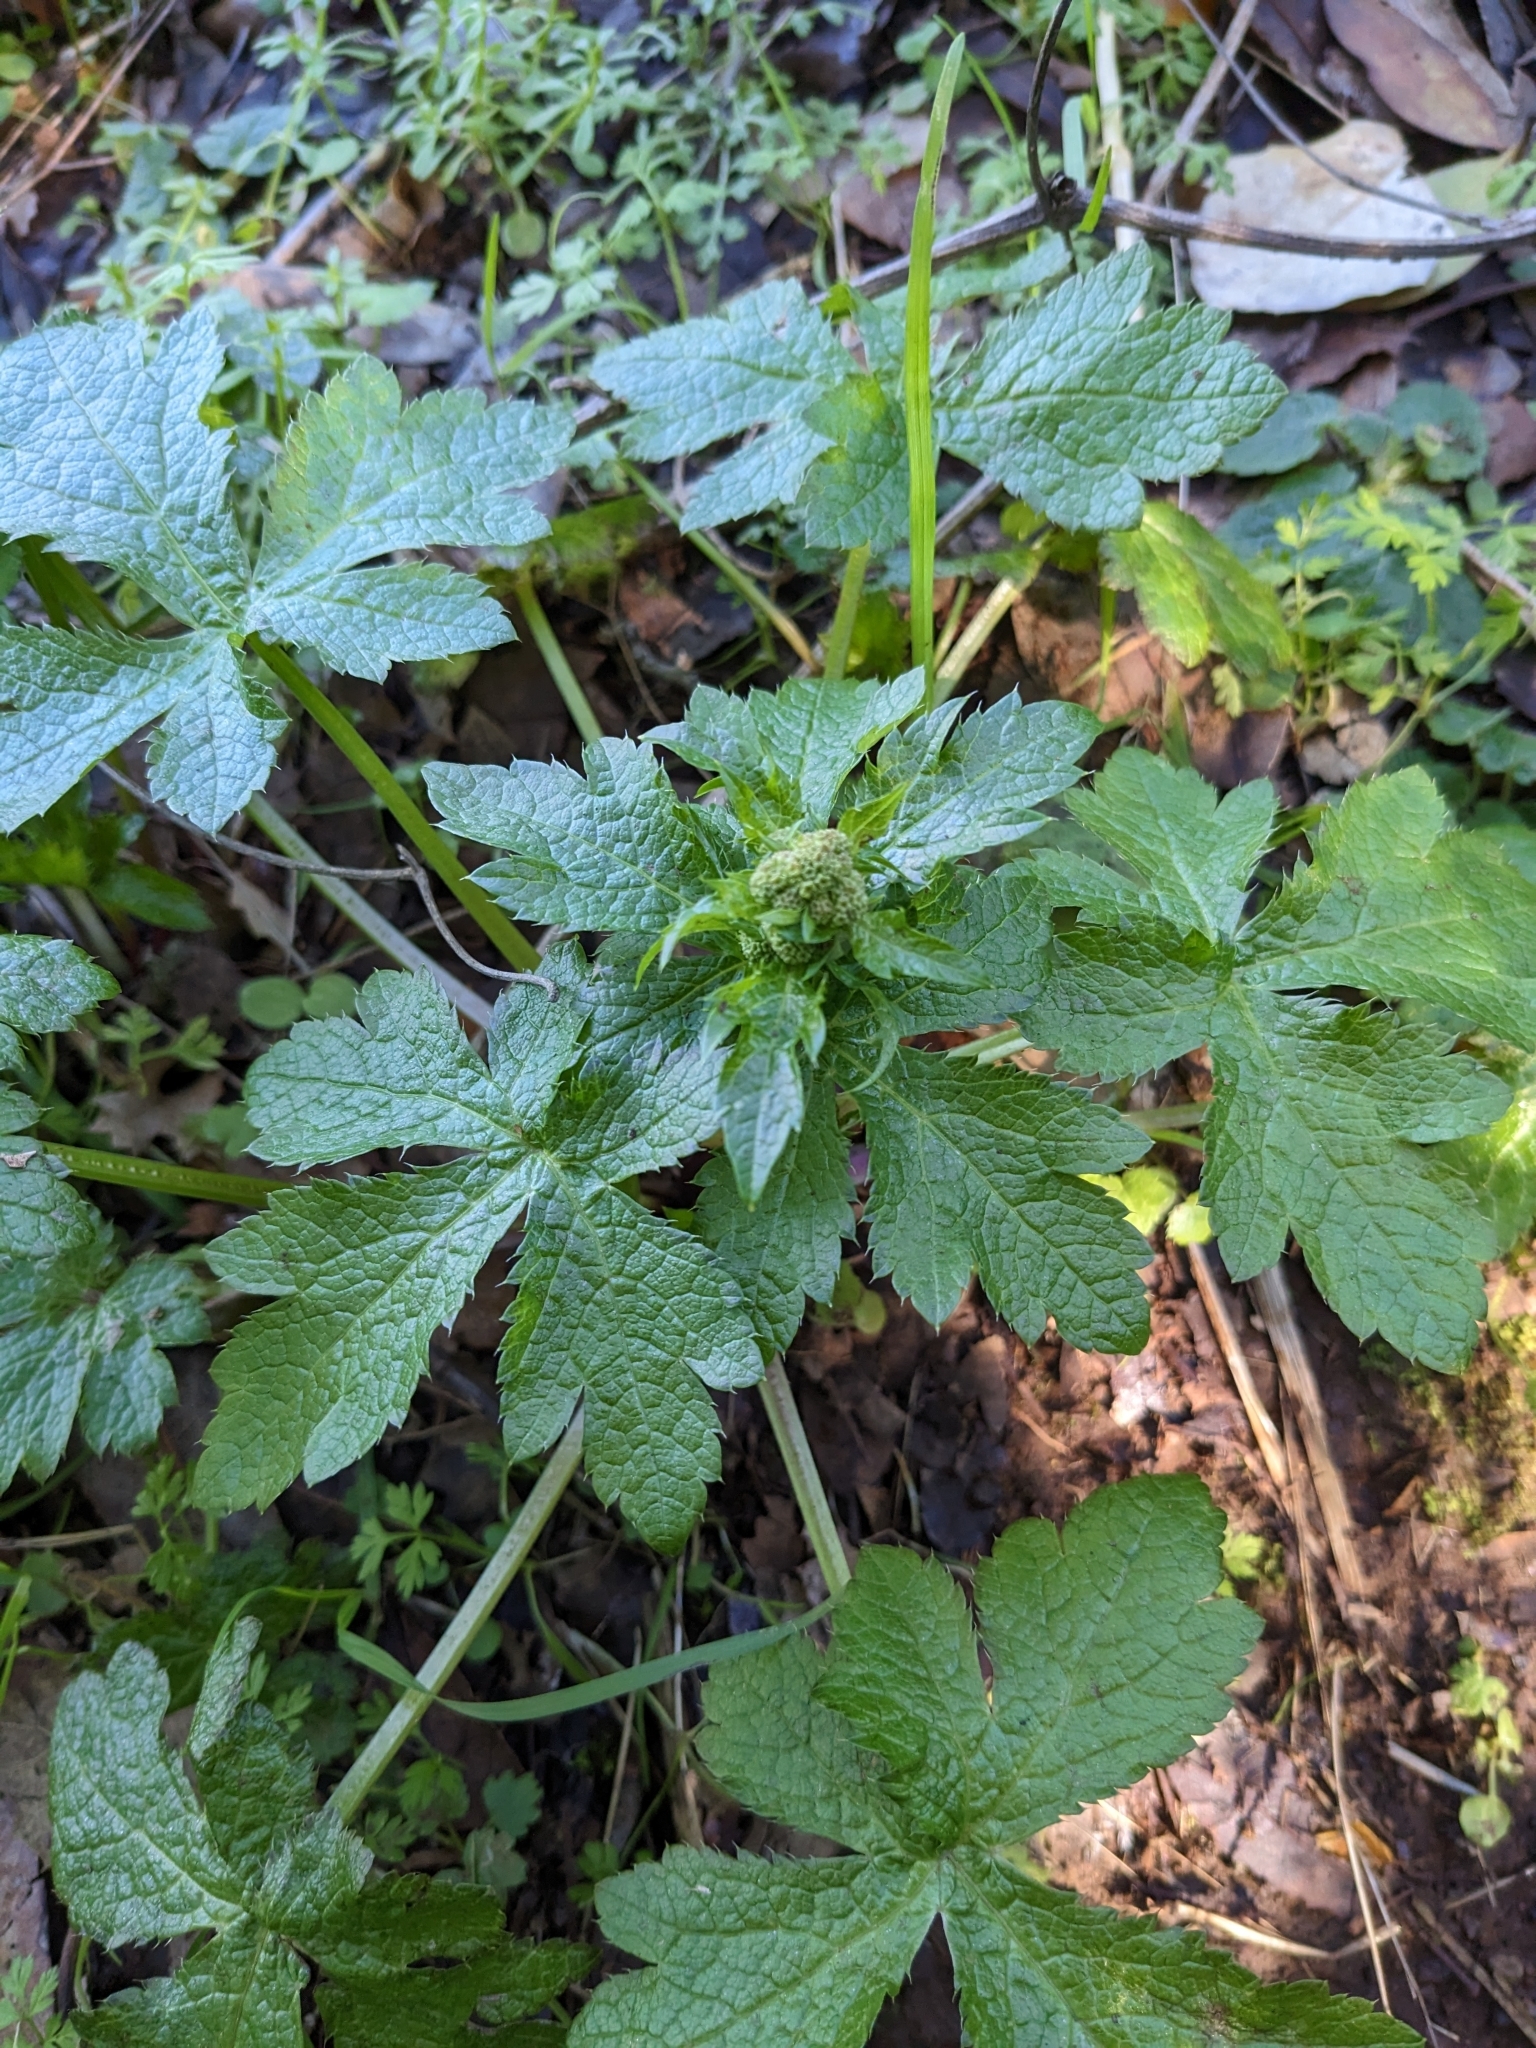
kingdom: Plantae
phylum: Tracheophyta
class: Magnoliopsida
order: Apiales
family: Apiaceae
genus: Sanicula
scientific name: Sanicula crassicaulis
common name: Western snakeroot
